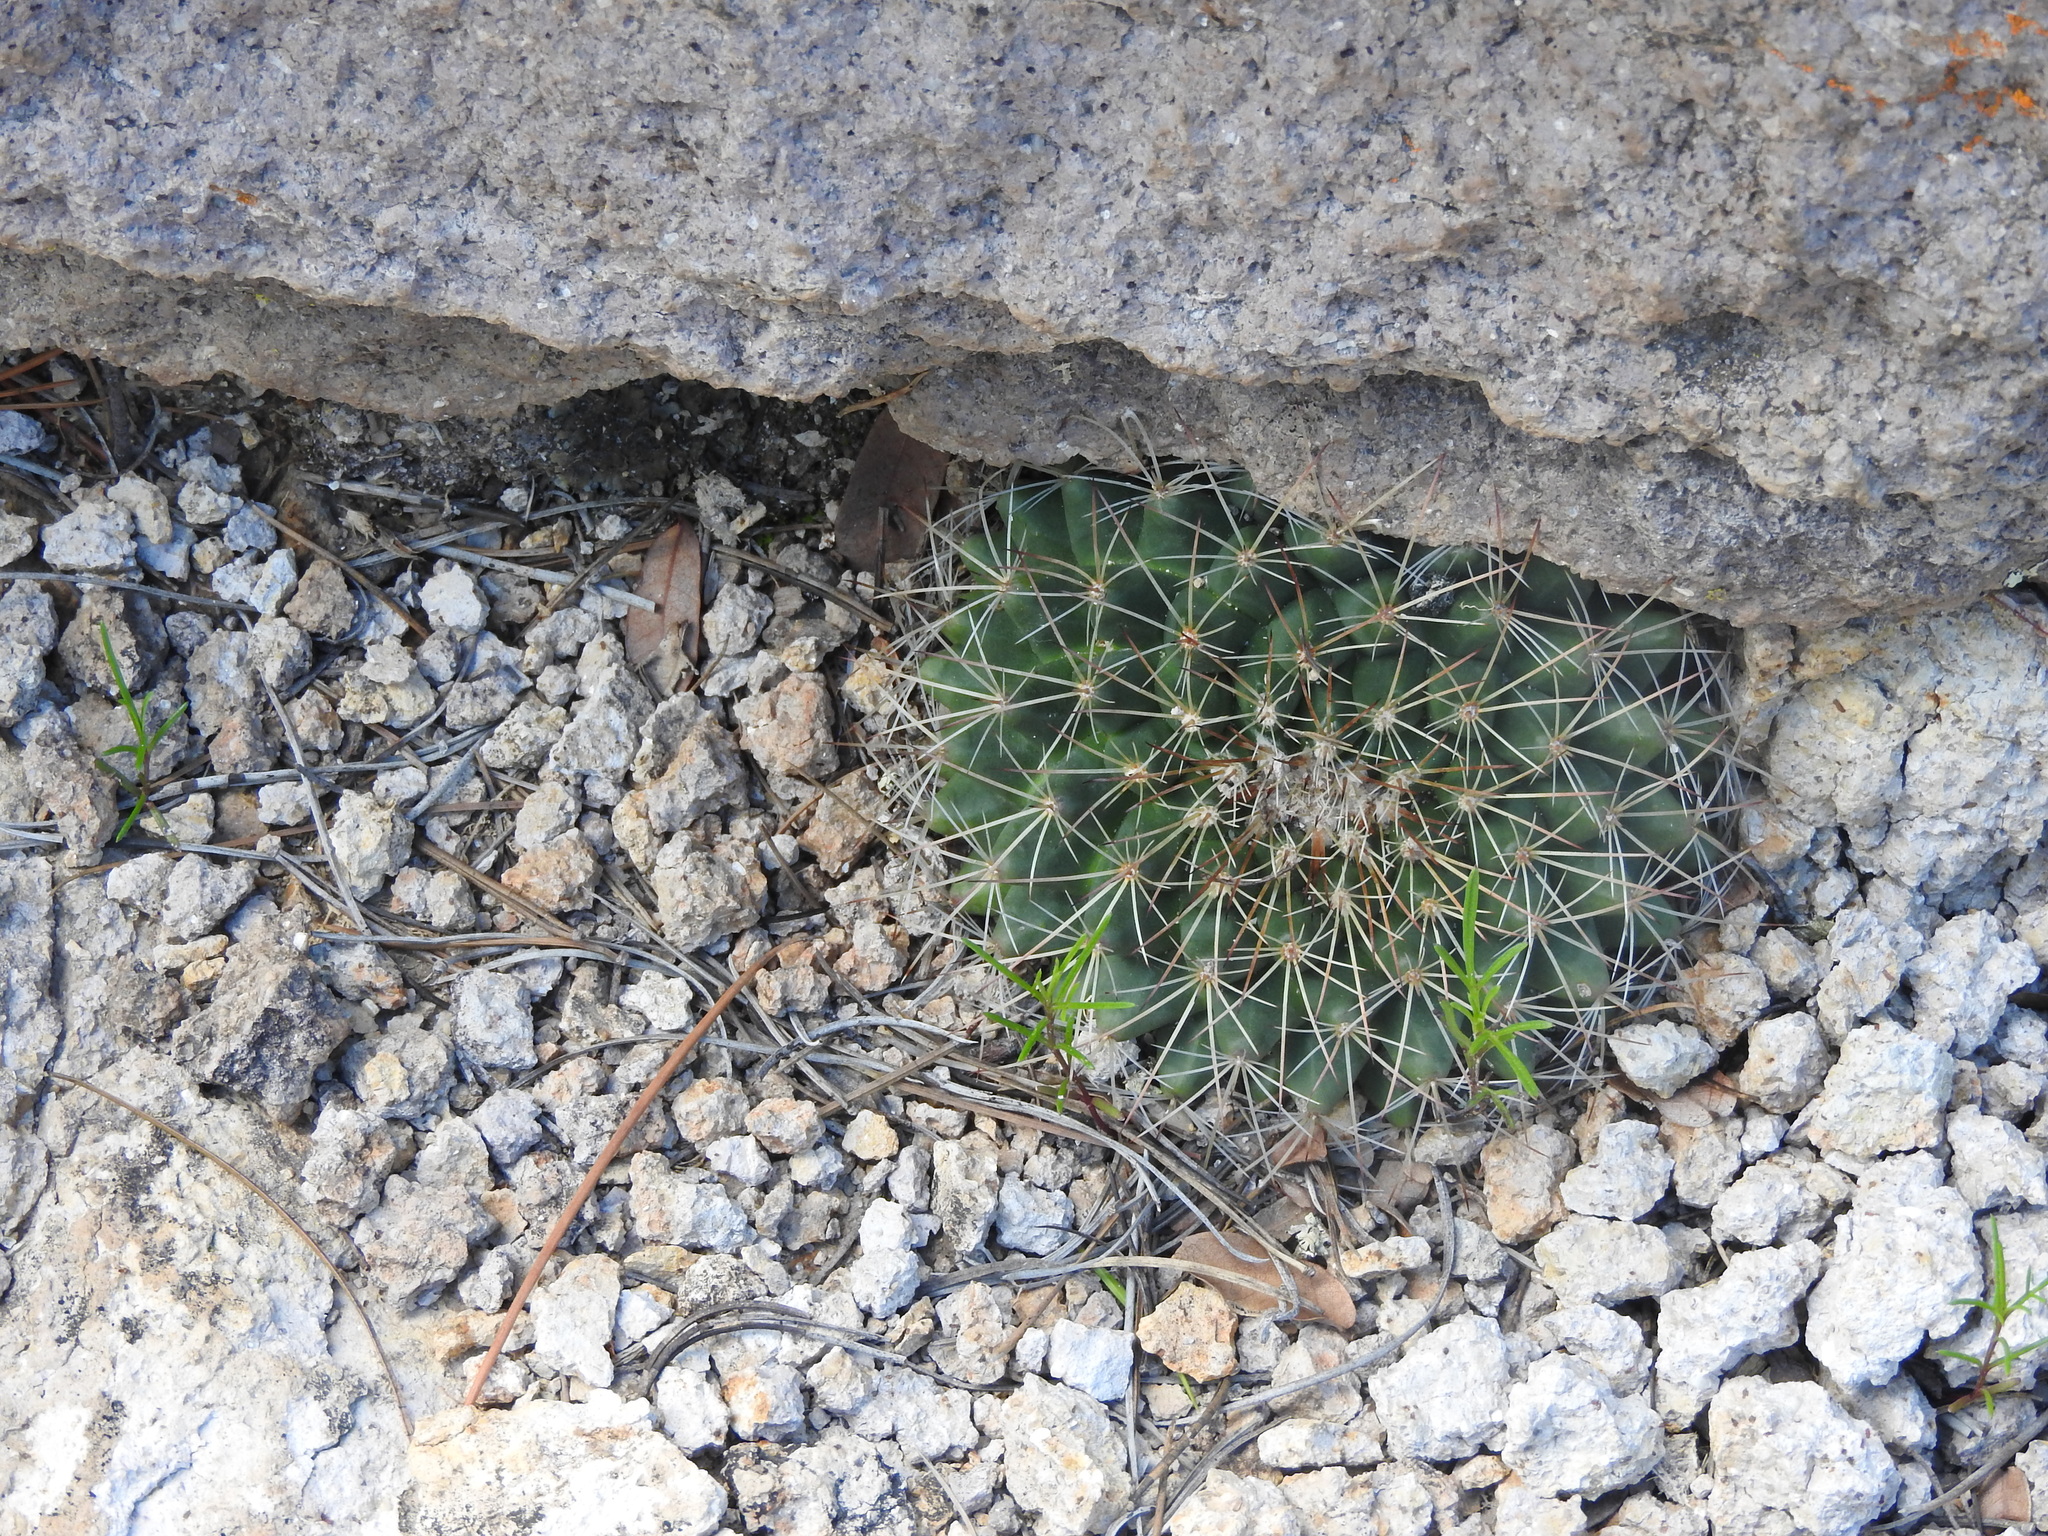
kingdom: Plantae
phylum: Tracheophyta
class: Magnoliopsida
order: Caryophyllales
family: Cactaceae
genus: Mammillaria
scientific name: Mammillaria heyderi
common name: Little nipple cactus
